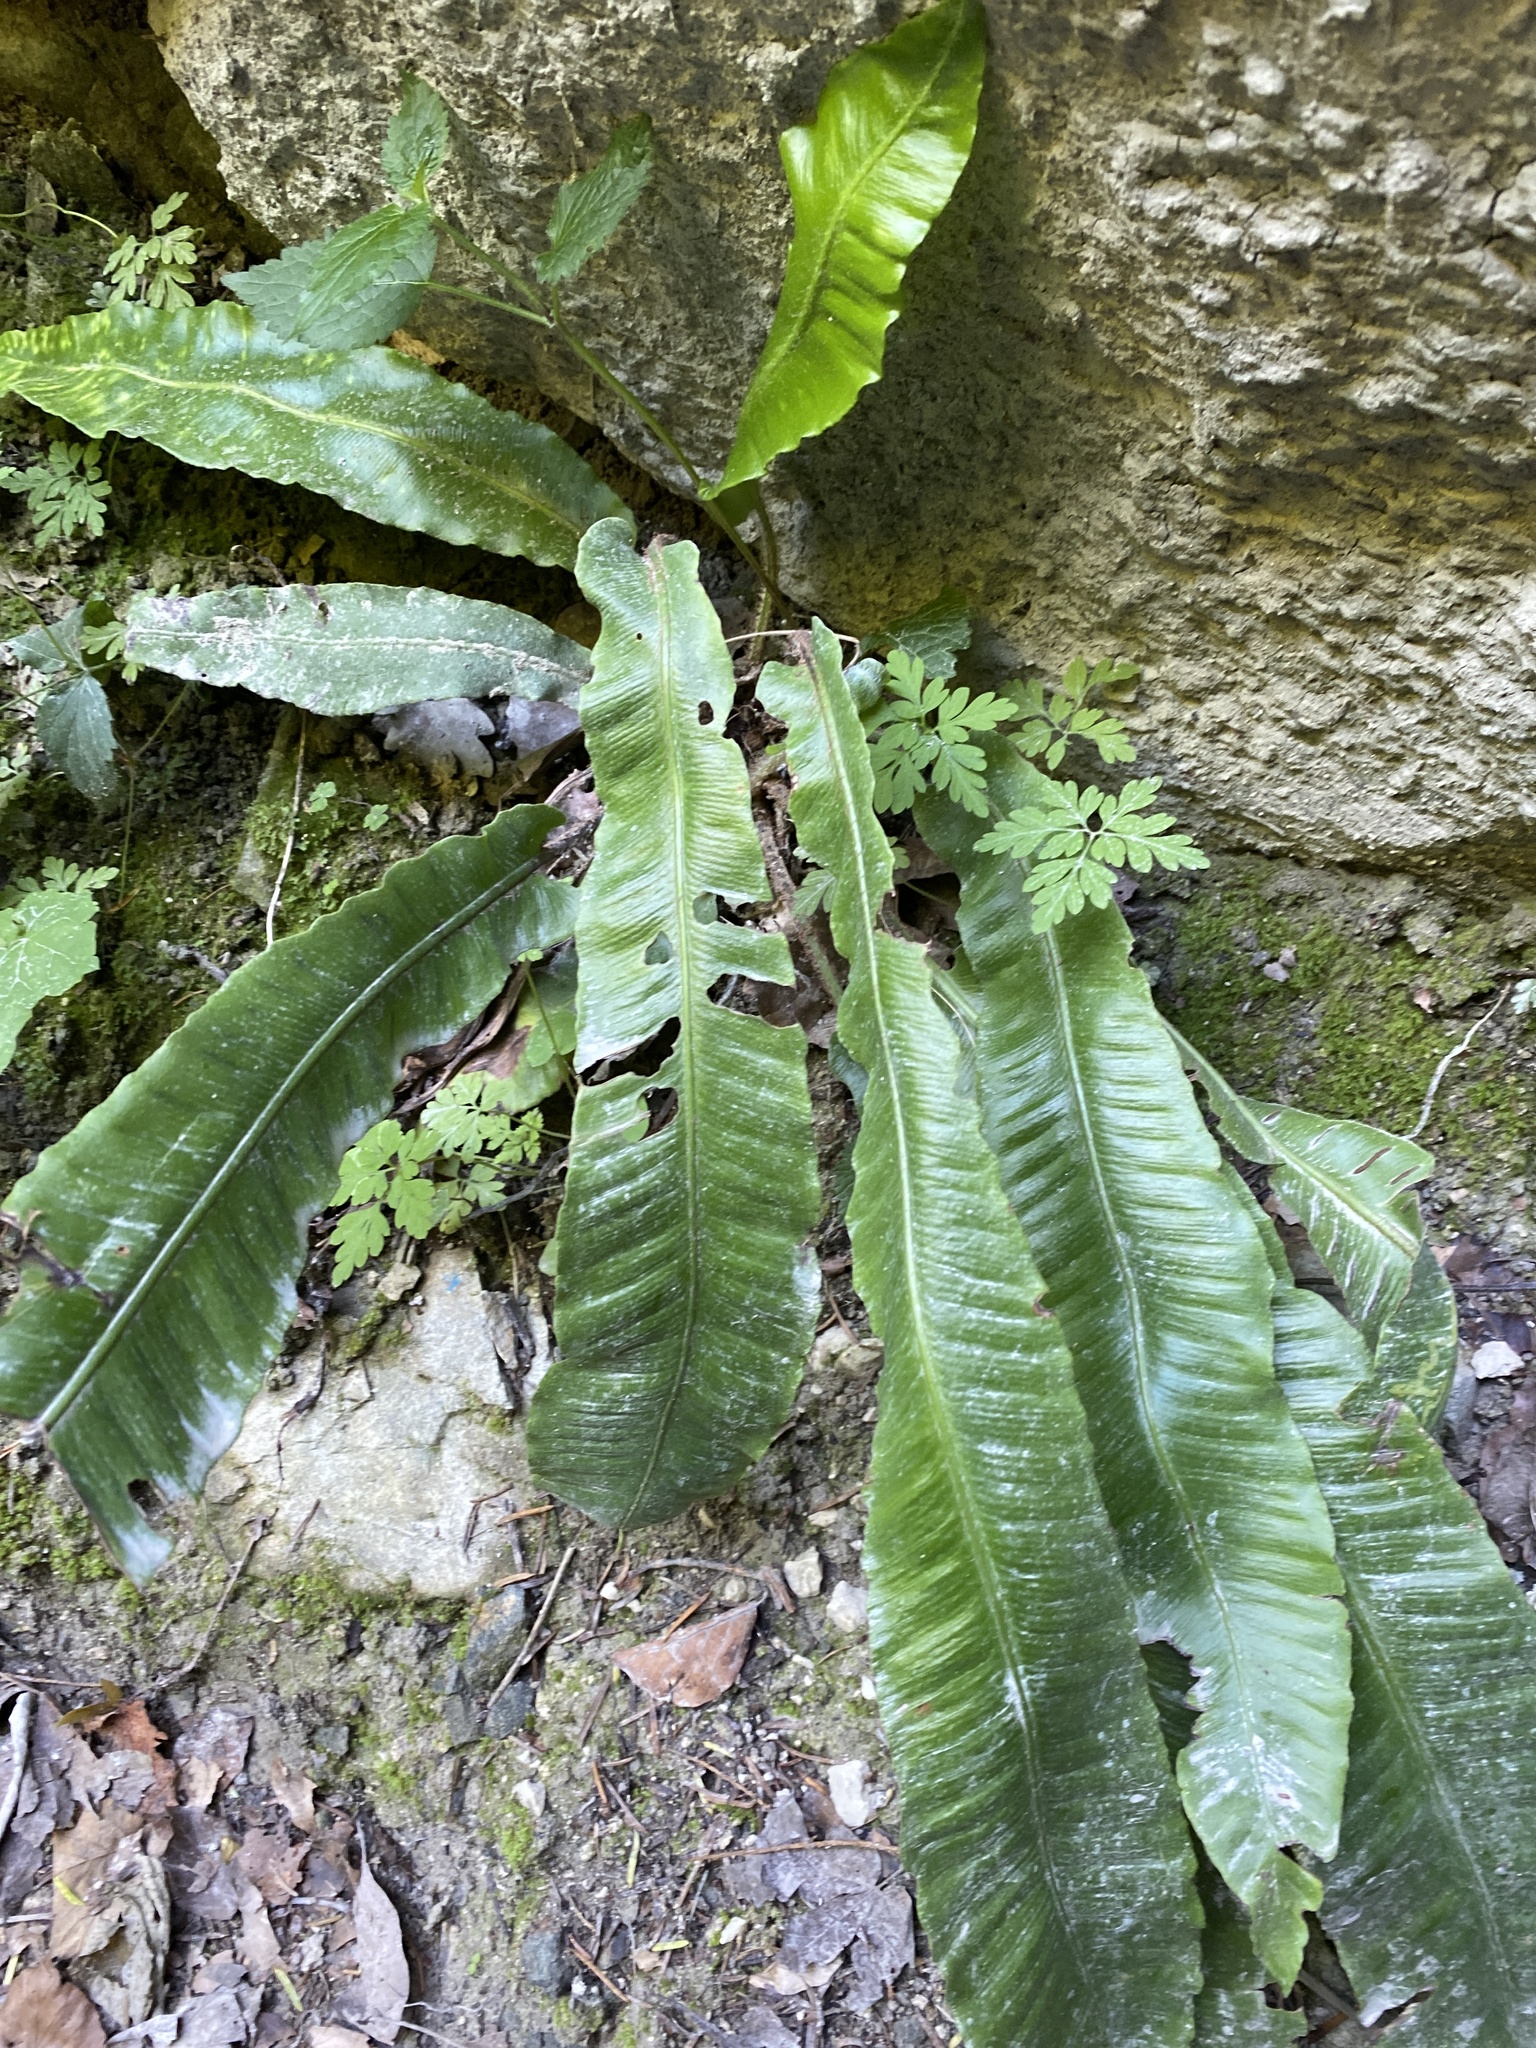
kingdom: Plantae
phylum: Tracheophyta
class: Polypodiopsida
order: Polypodiales
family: Aspleniaceae
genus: Asplenium
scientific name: Asplenium scolopendrium
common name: Hart's-tongue fern
